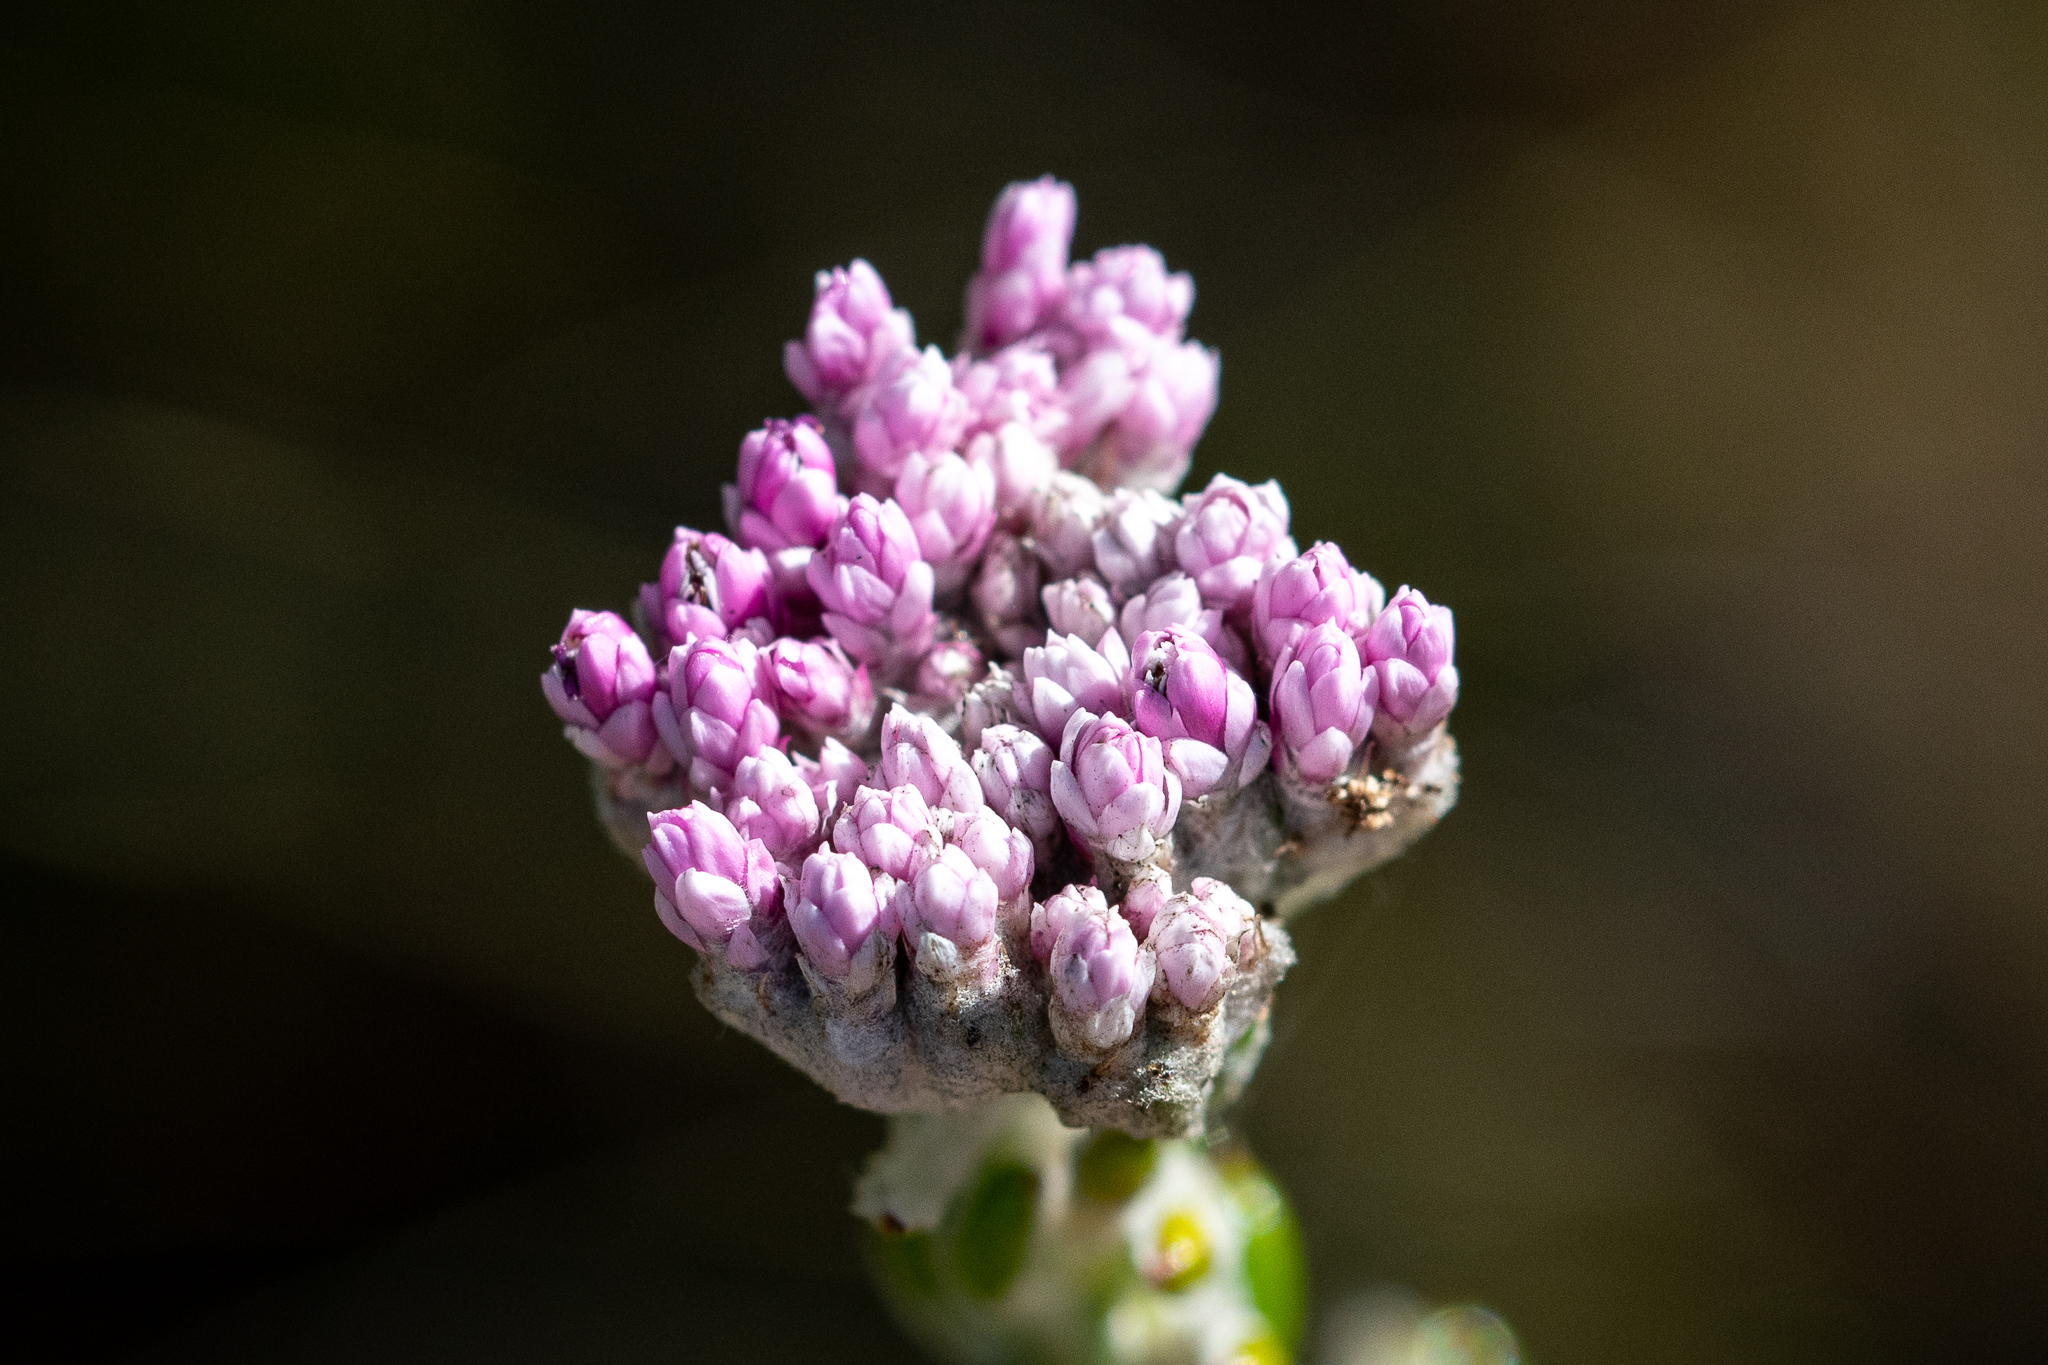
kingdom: Plantae
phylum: Tracheophyta
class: Magnoliopsida
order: Asterales
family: Asteraceae
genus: Metalasia
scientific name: Metalasia cymbifolia
